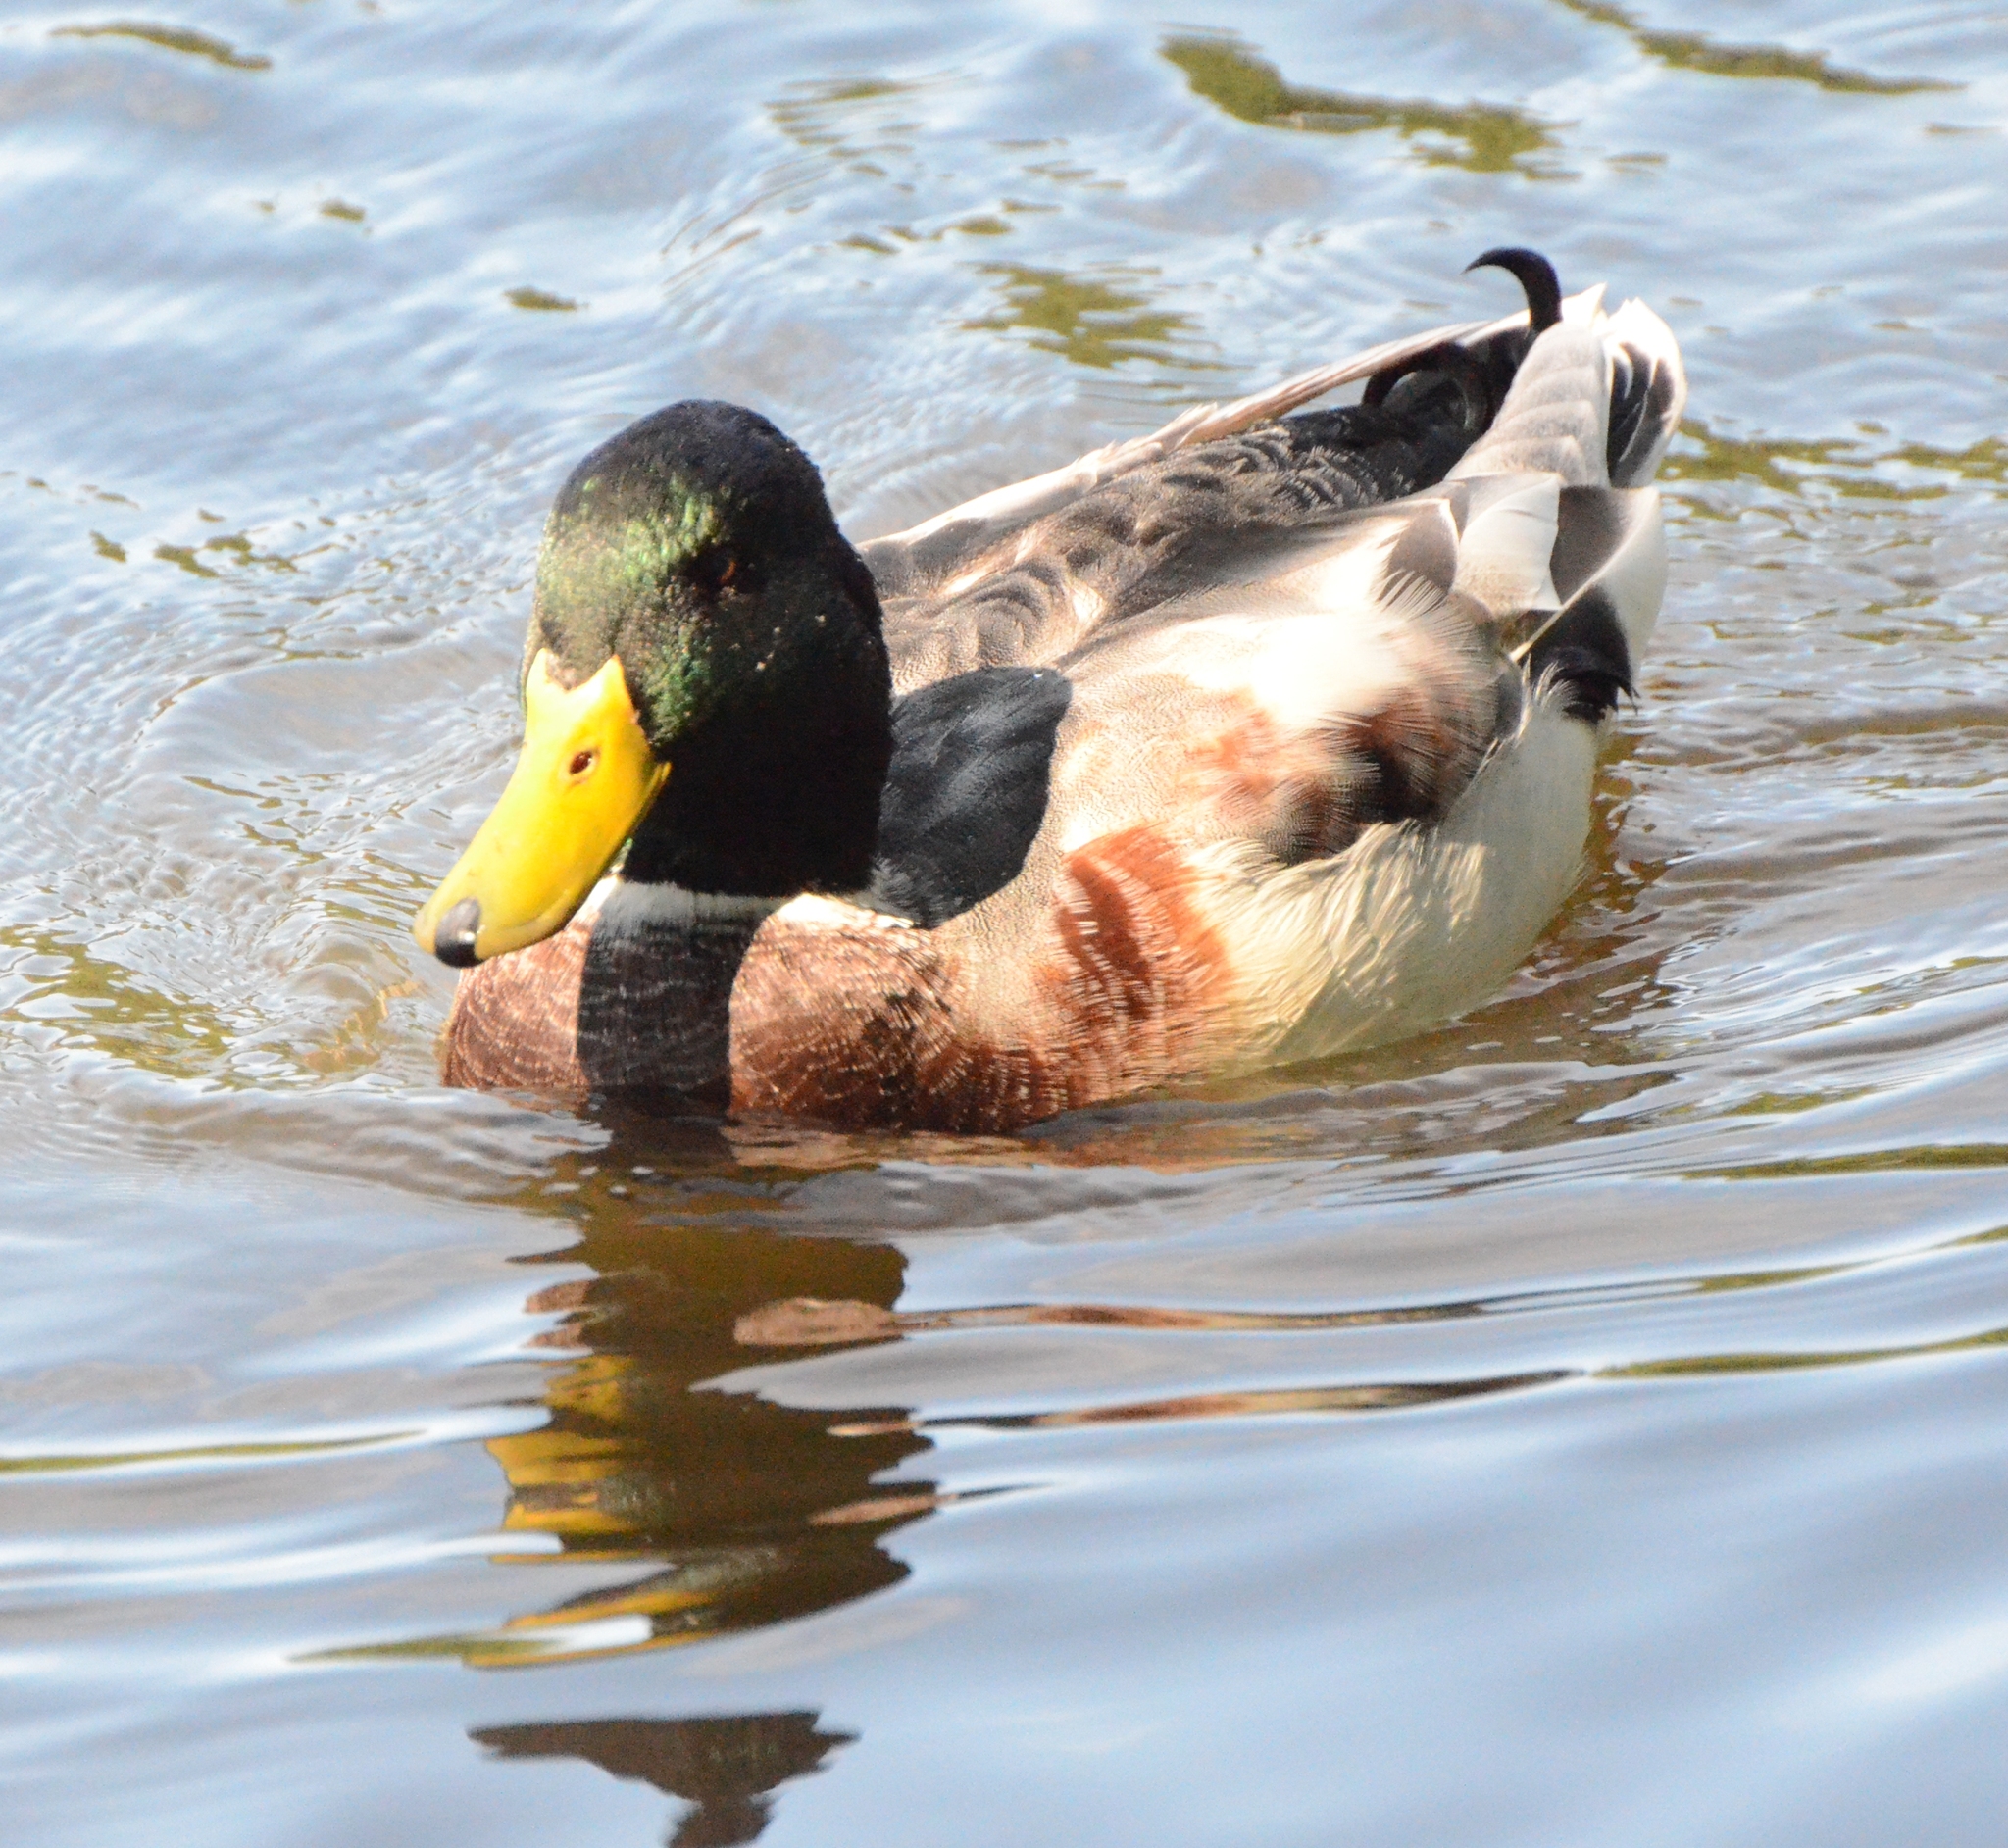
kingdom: Animalia
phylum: Chordata
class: Aves
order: Anseriformes
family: Anatidae
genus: Anas
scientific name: Anas platyrhynchos
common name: Mallard
